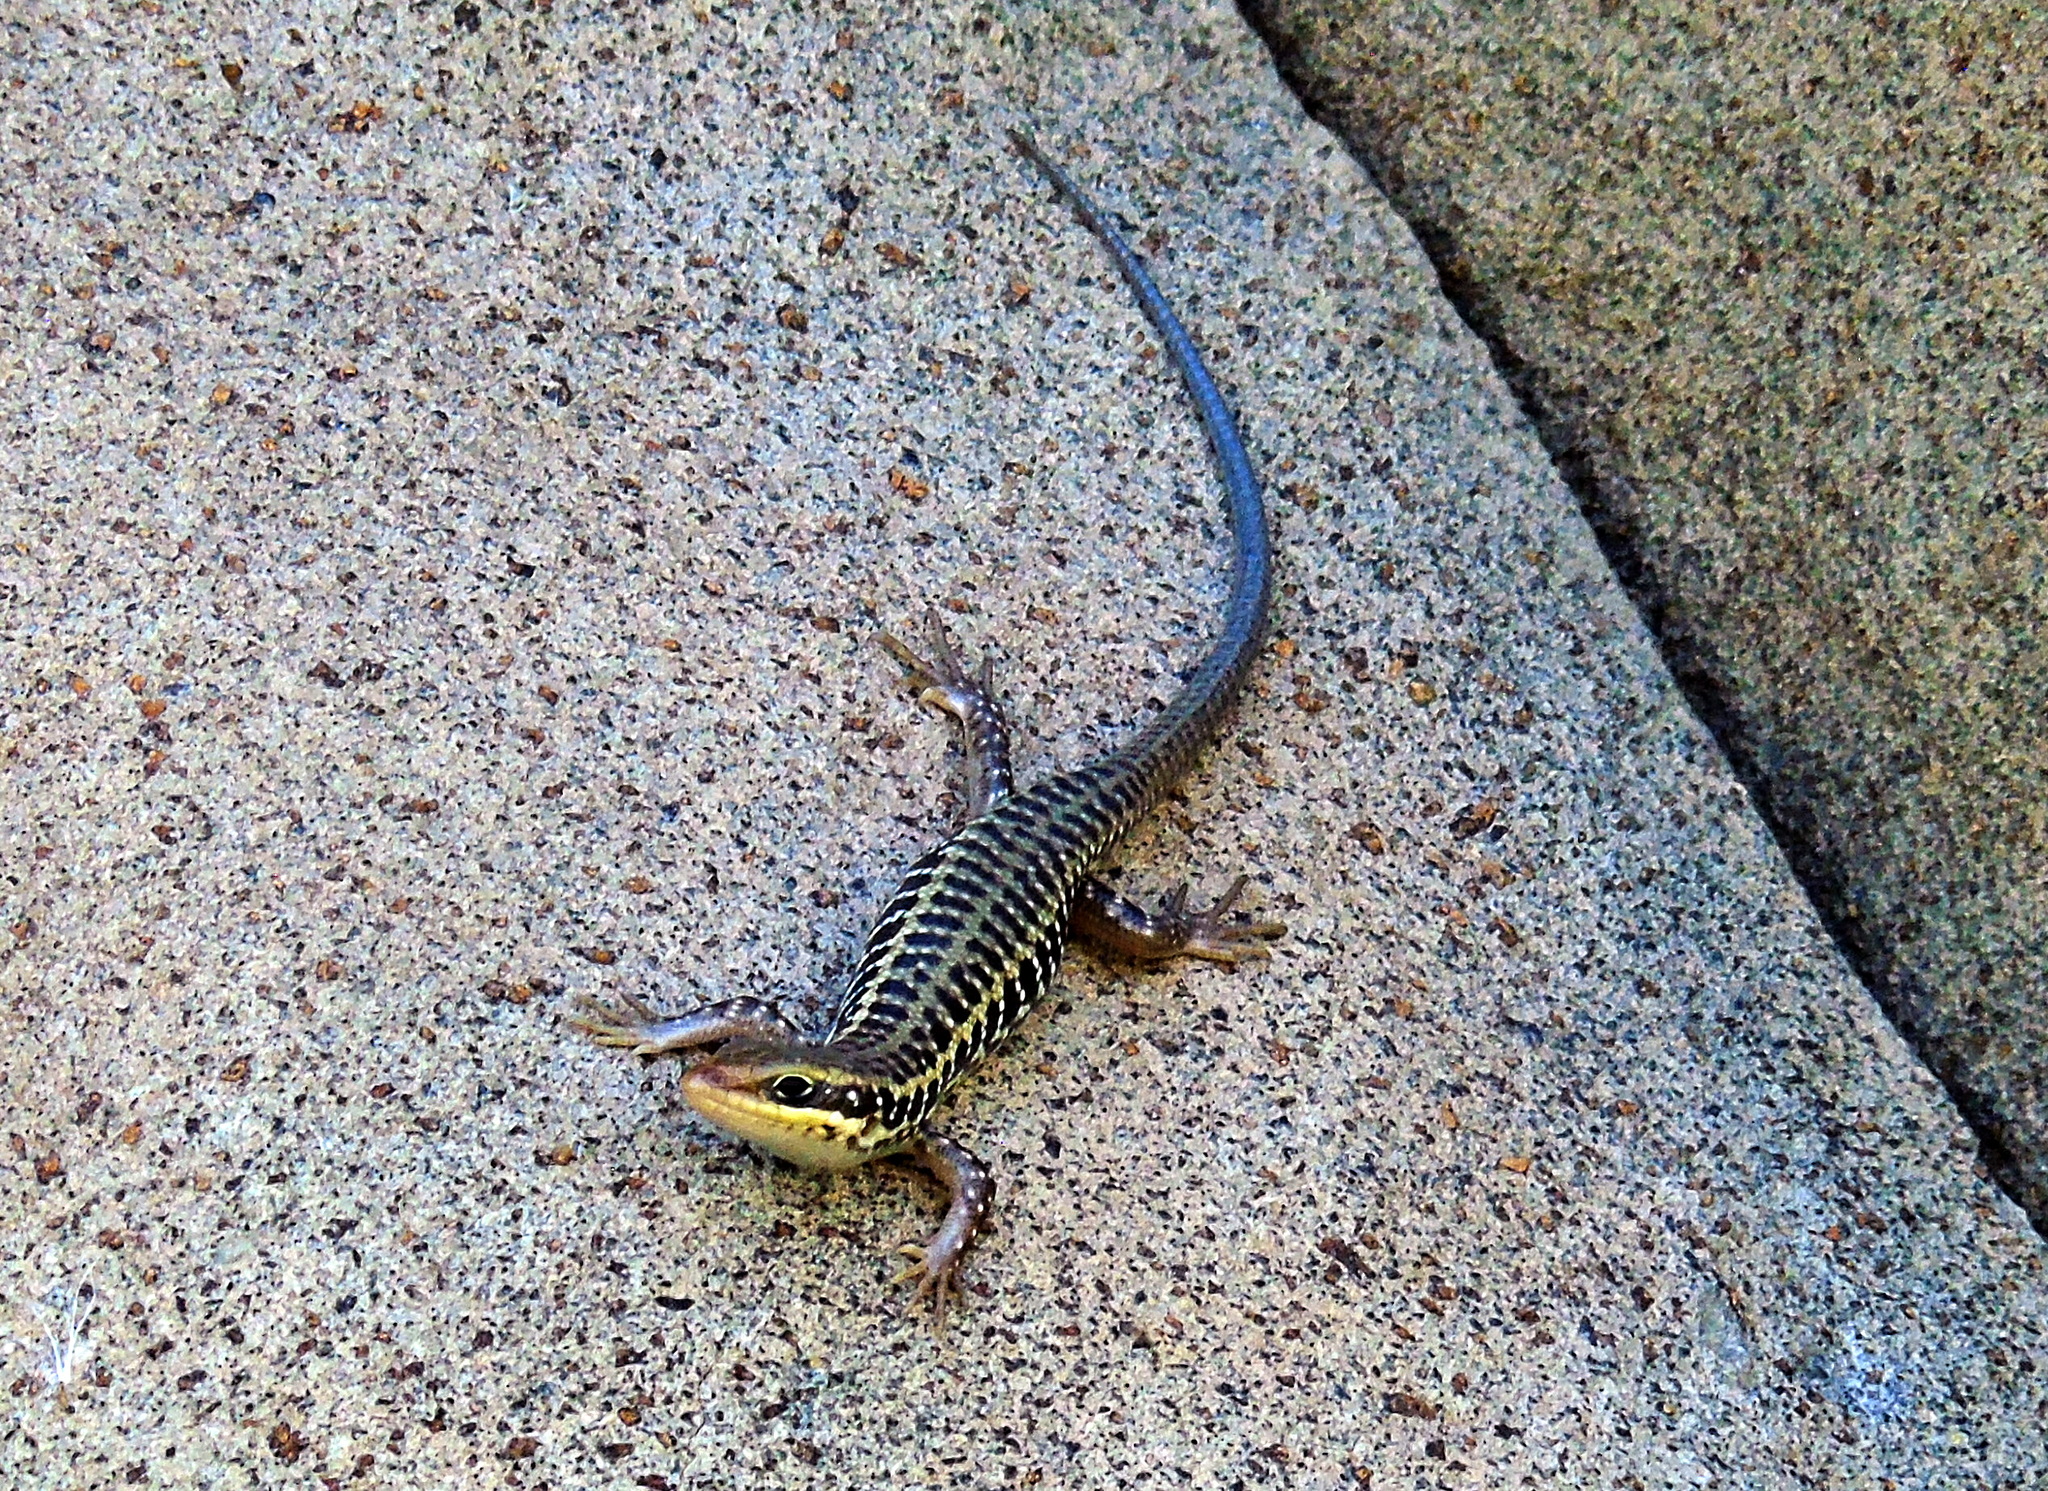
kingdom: Animalia
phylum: Chordata
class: Squamata
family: Scincidae
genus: Heremites
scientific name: Heremites auratus
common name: Golden grass mabuya
